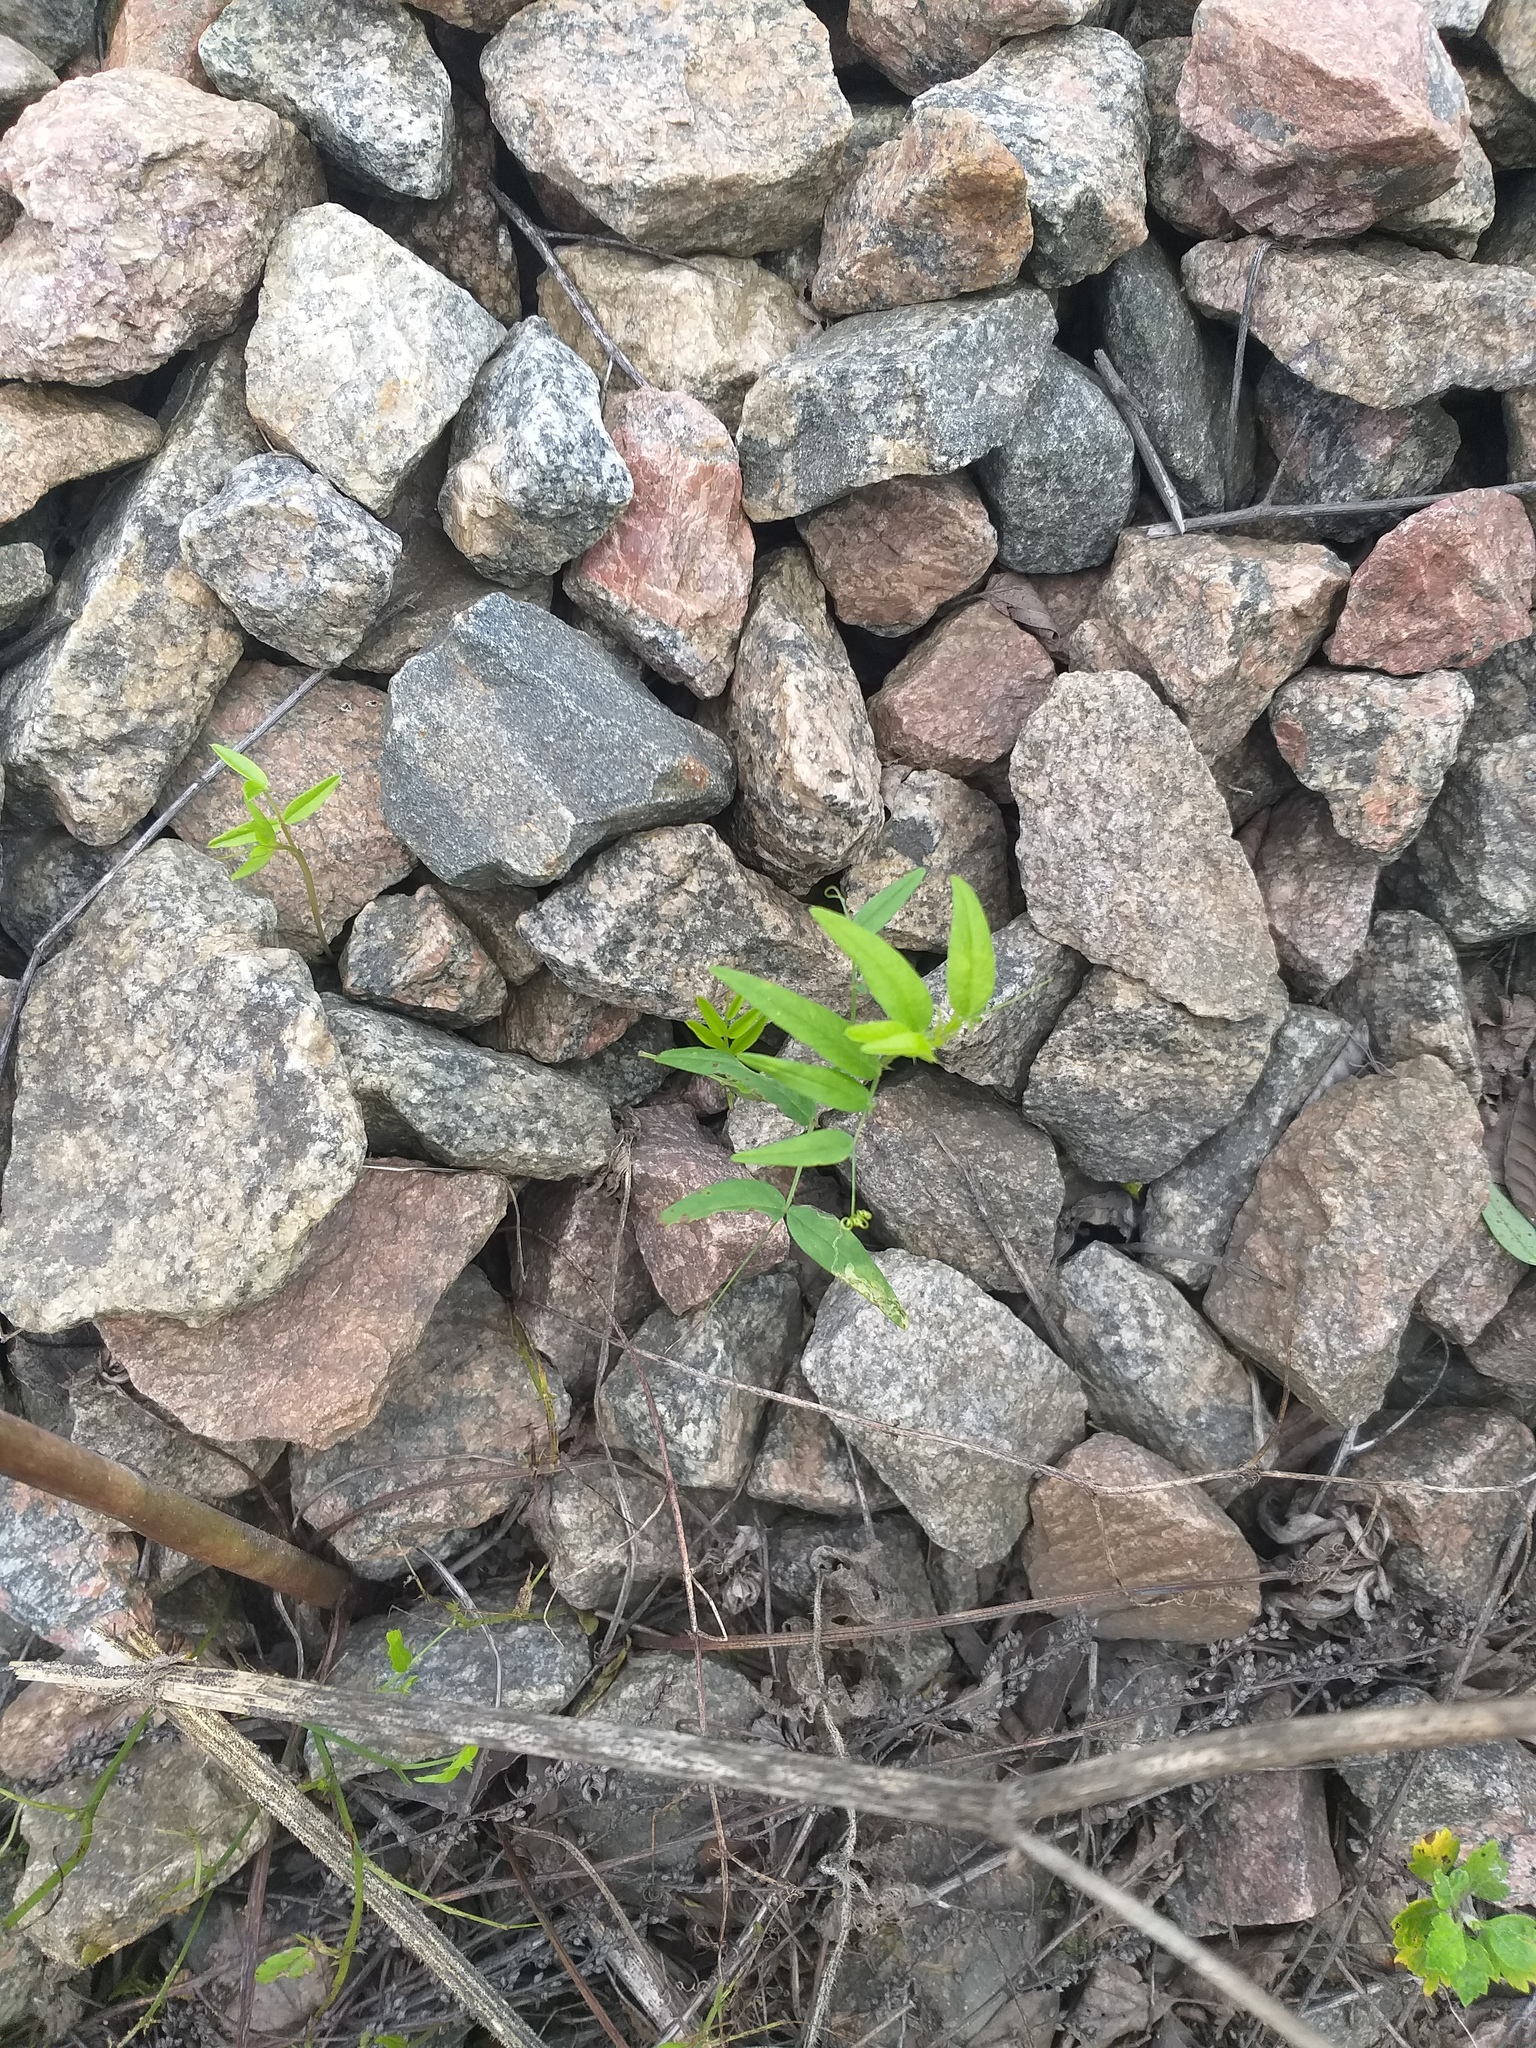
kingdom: Plantae
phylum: Tracheophyta
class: Magnoliopsida
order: Fabales
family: Fabaceae
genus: Vicia
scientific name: Vicia sepium
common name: Bush vetch
